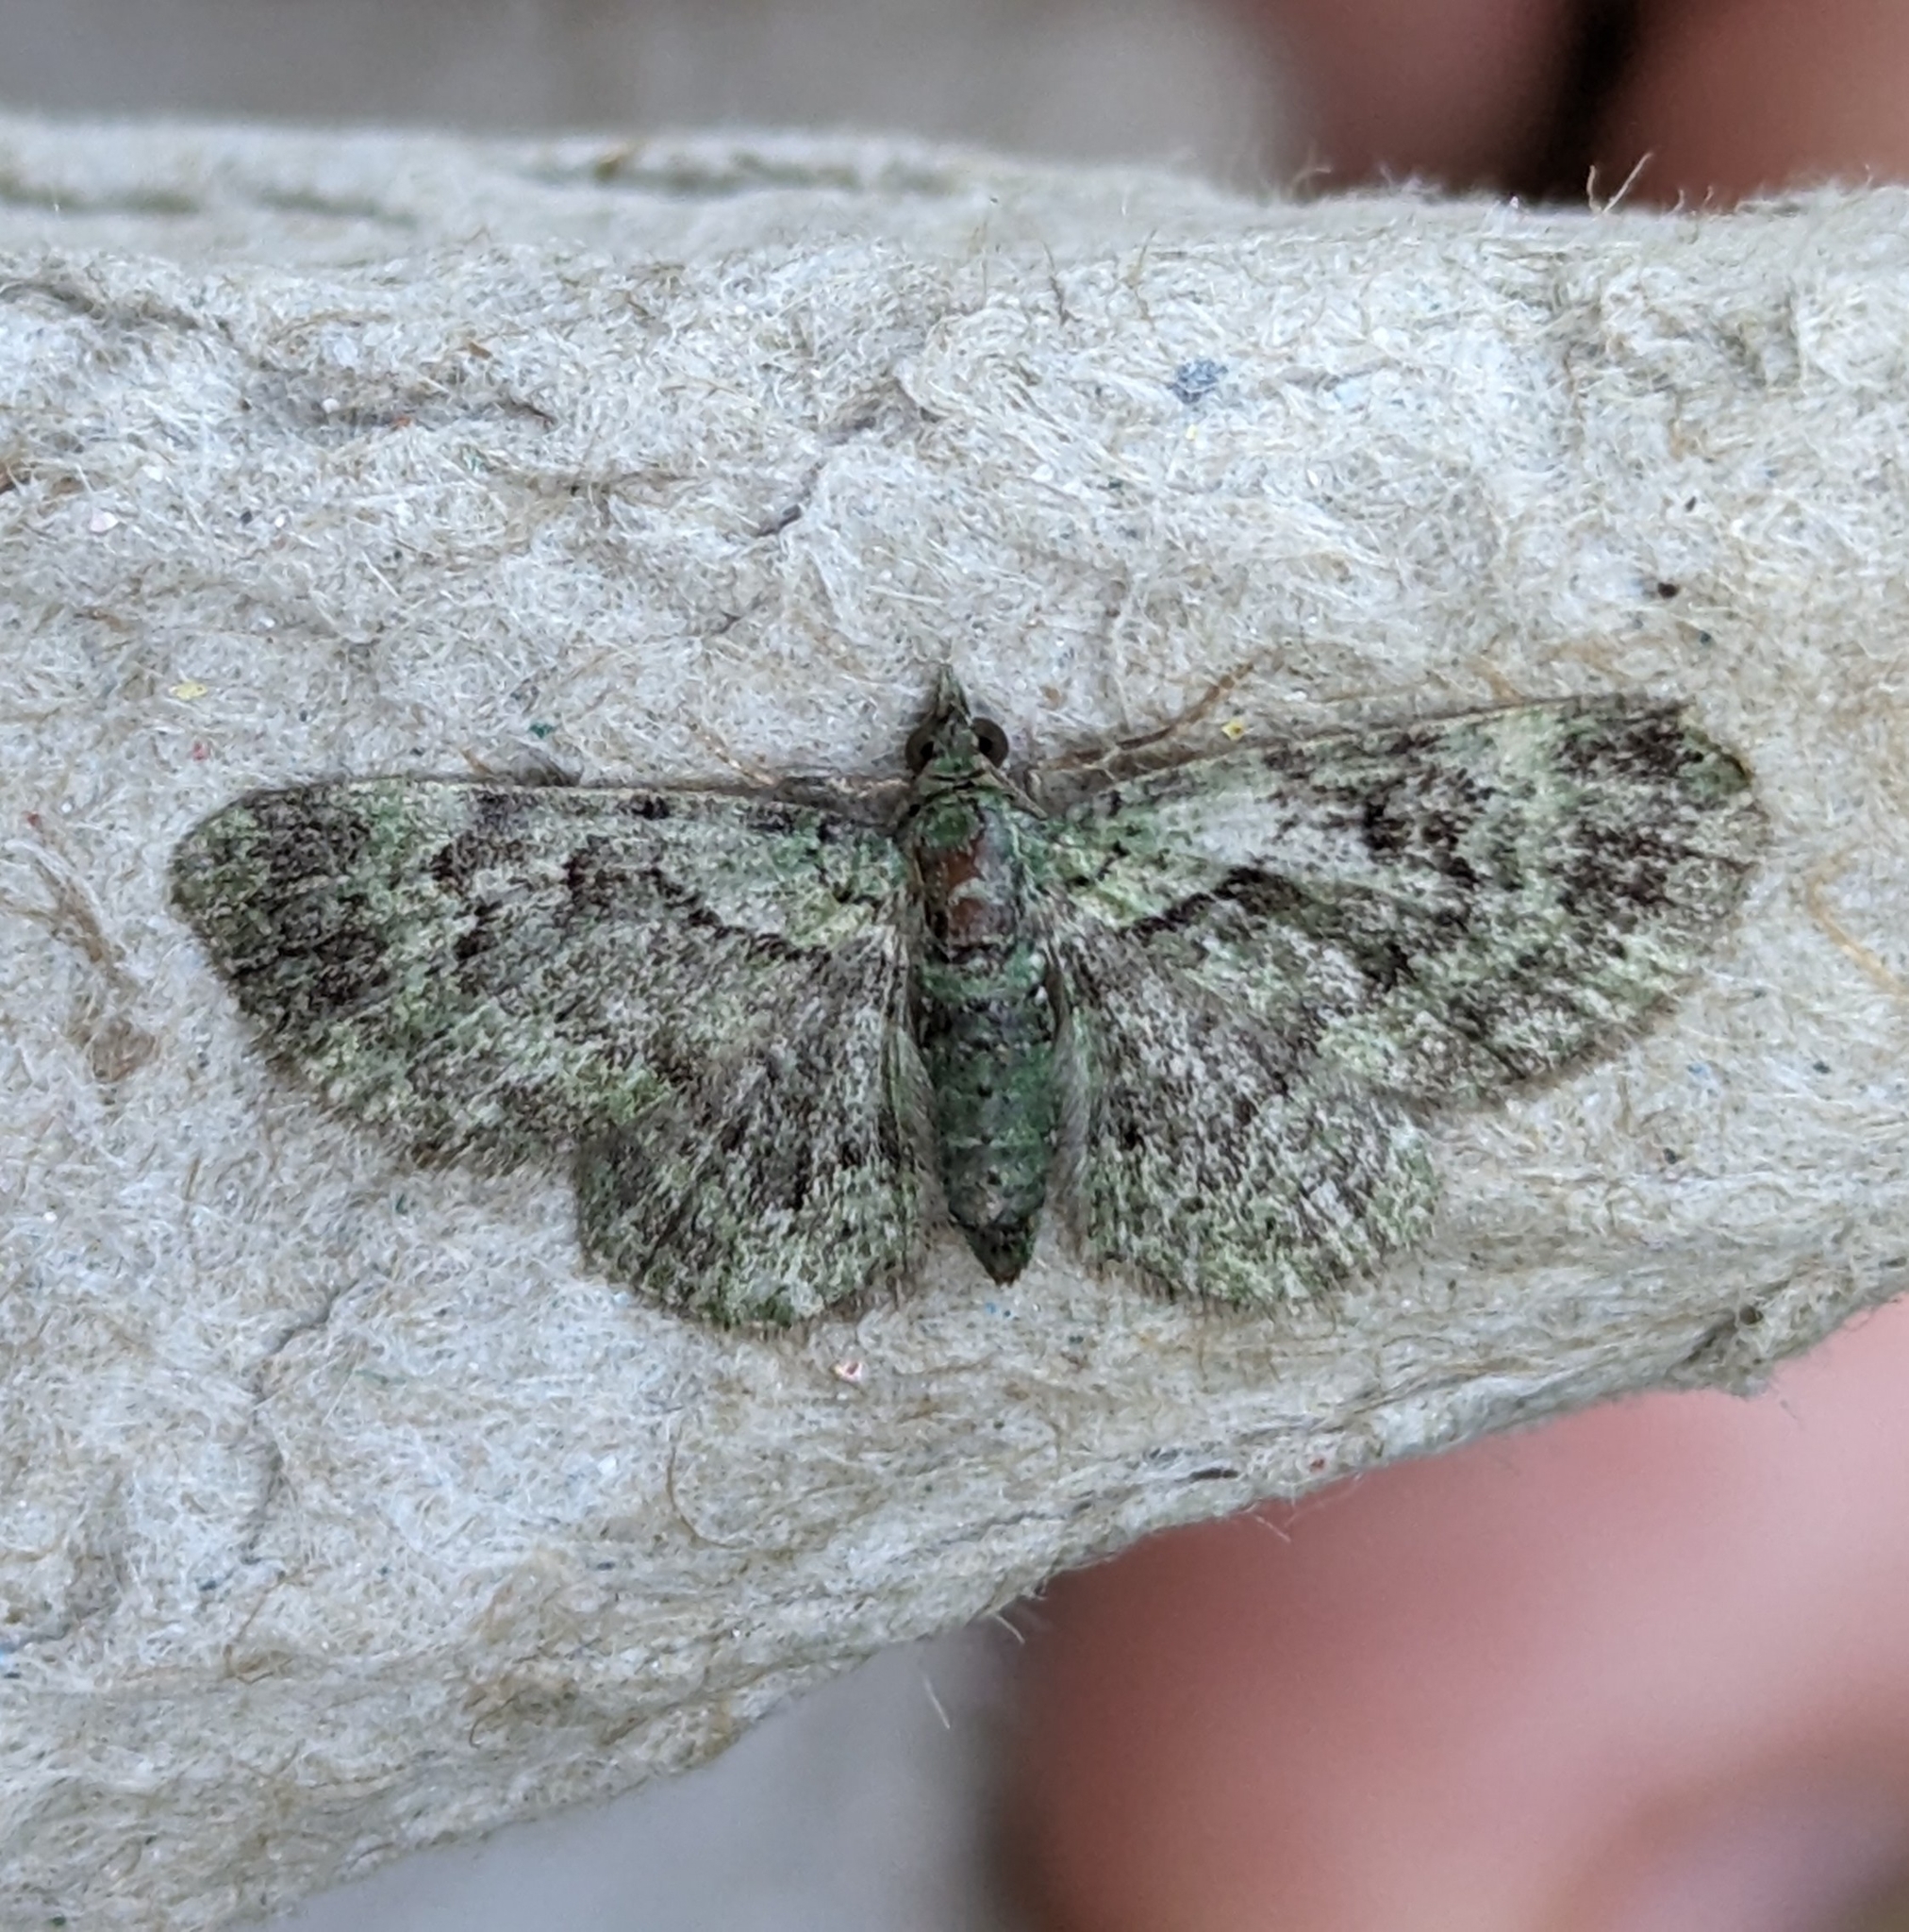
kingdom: Animalia
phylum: Arthropoda
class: Insecta
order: Lepidoptera
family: Geometridae
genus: Pasiphila
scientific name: Pasiphila rectangulata
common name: Green pug
